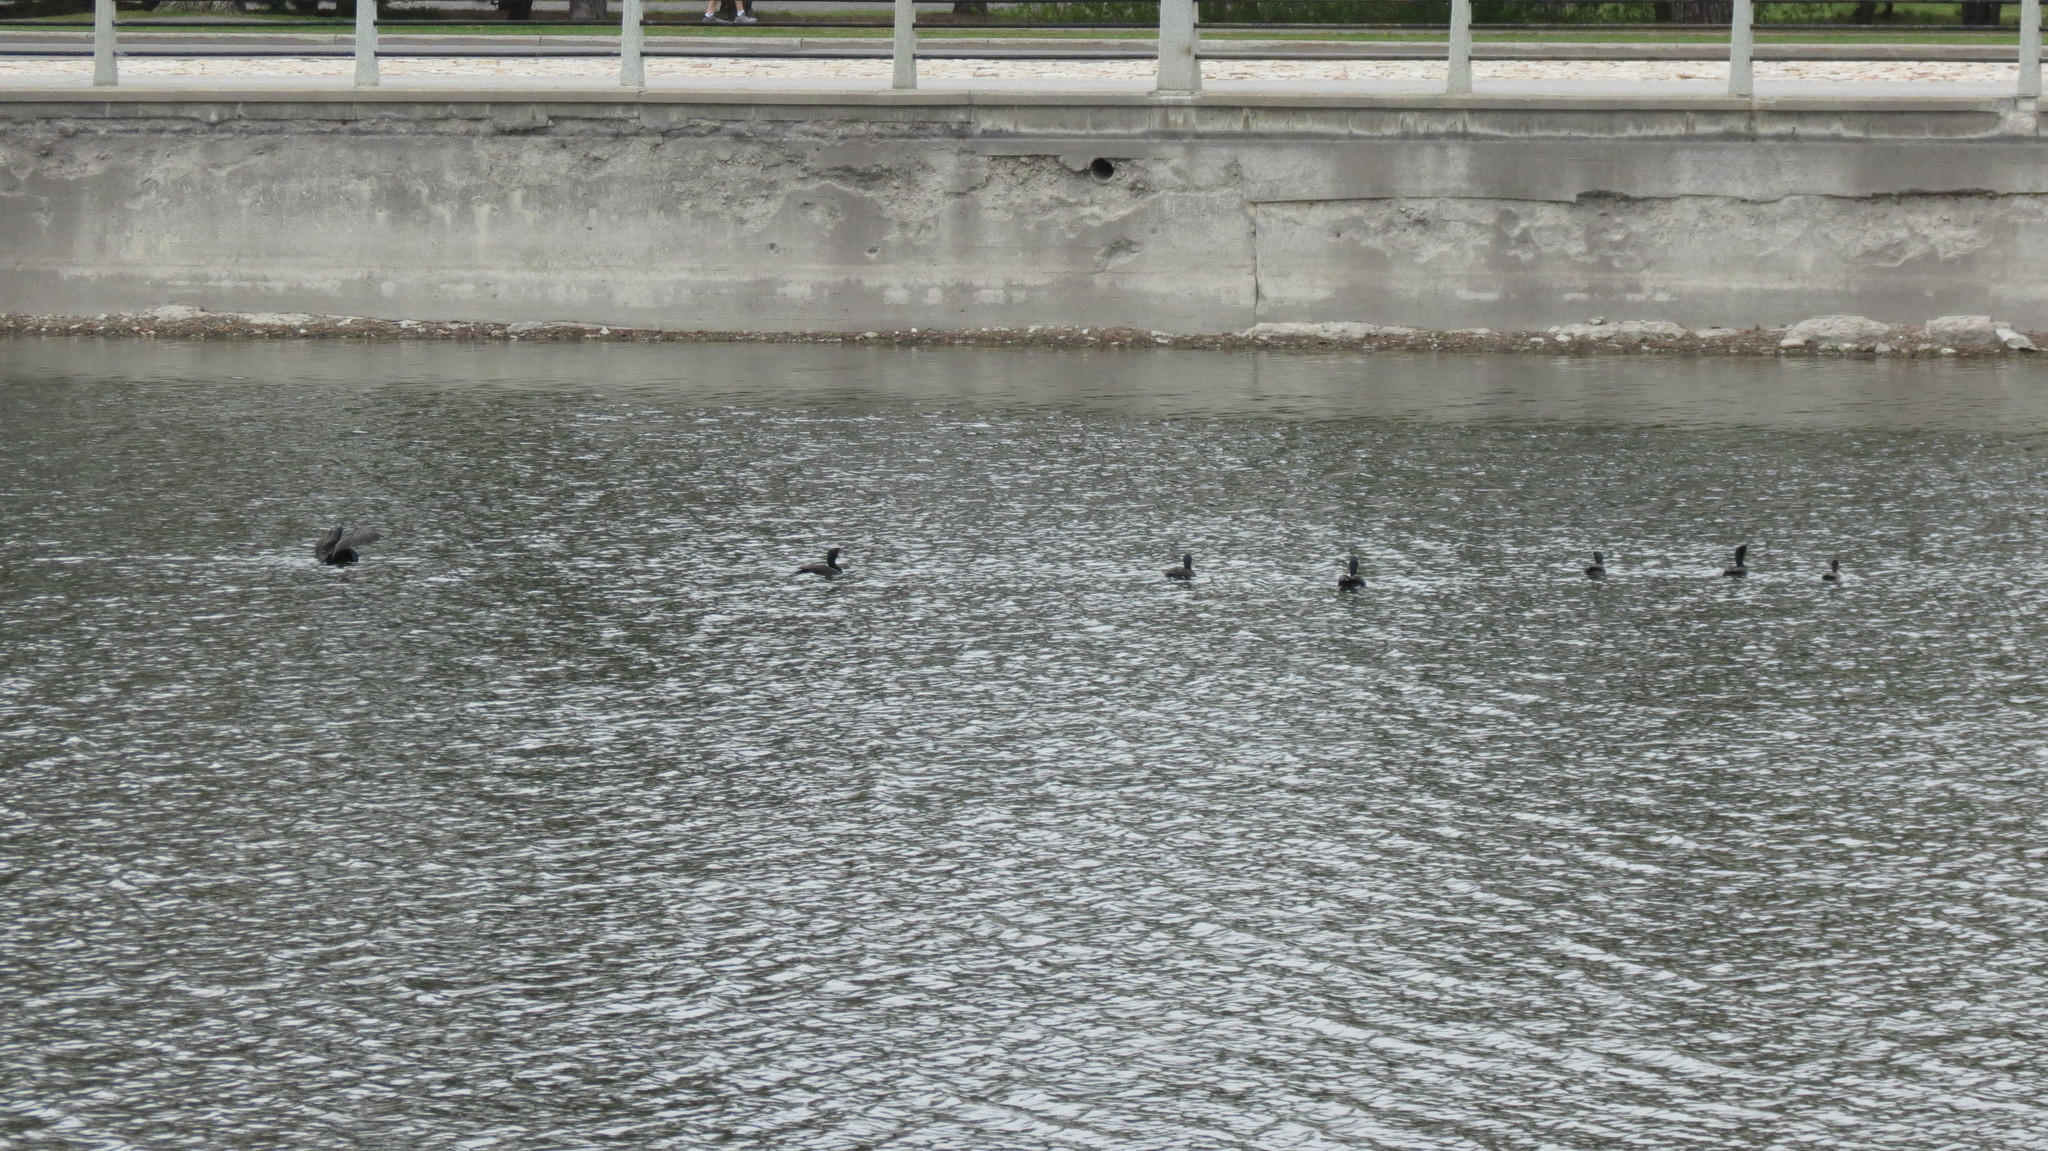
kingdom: Animalia
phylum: Chordata
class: Aves
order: Suliformes
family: Phalacrocoracidae
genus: Phalacrocorax
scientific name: Phalacrocorax auritus
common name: Double-crested cormorant
